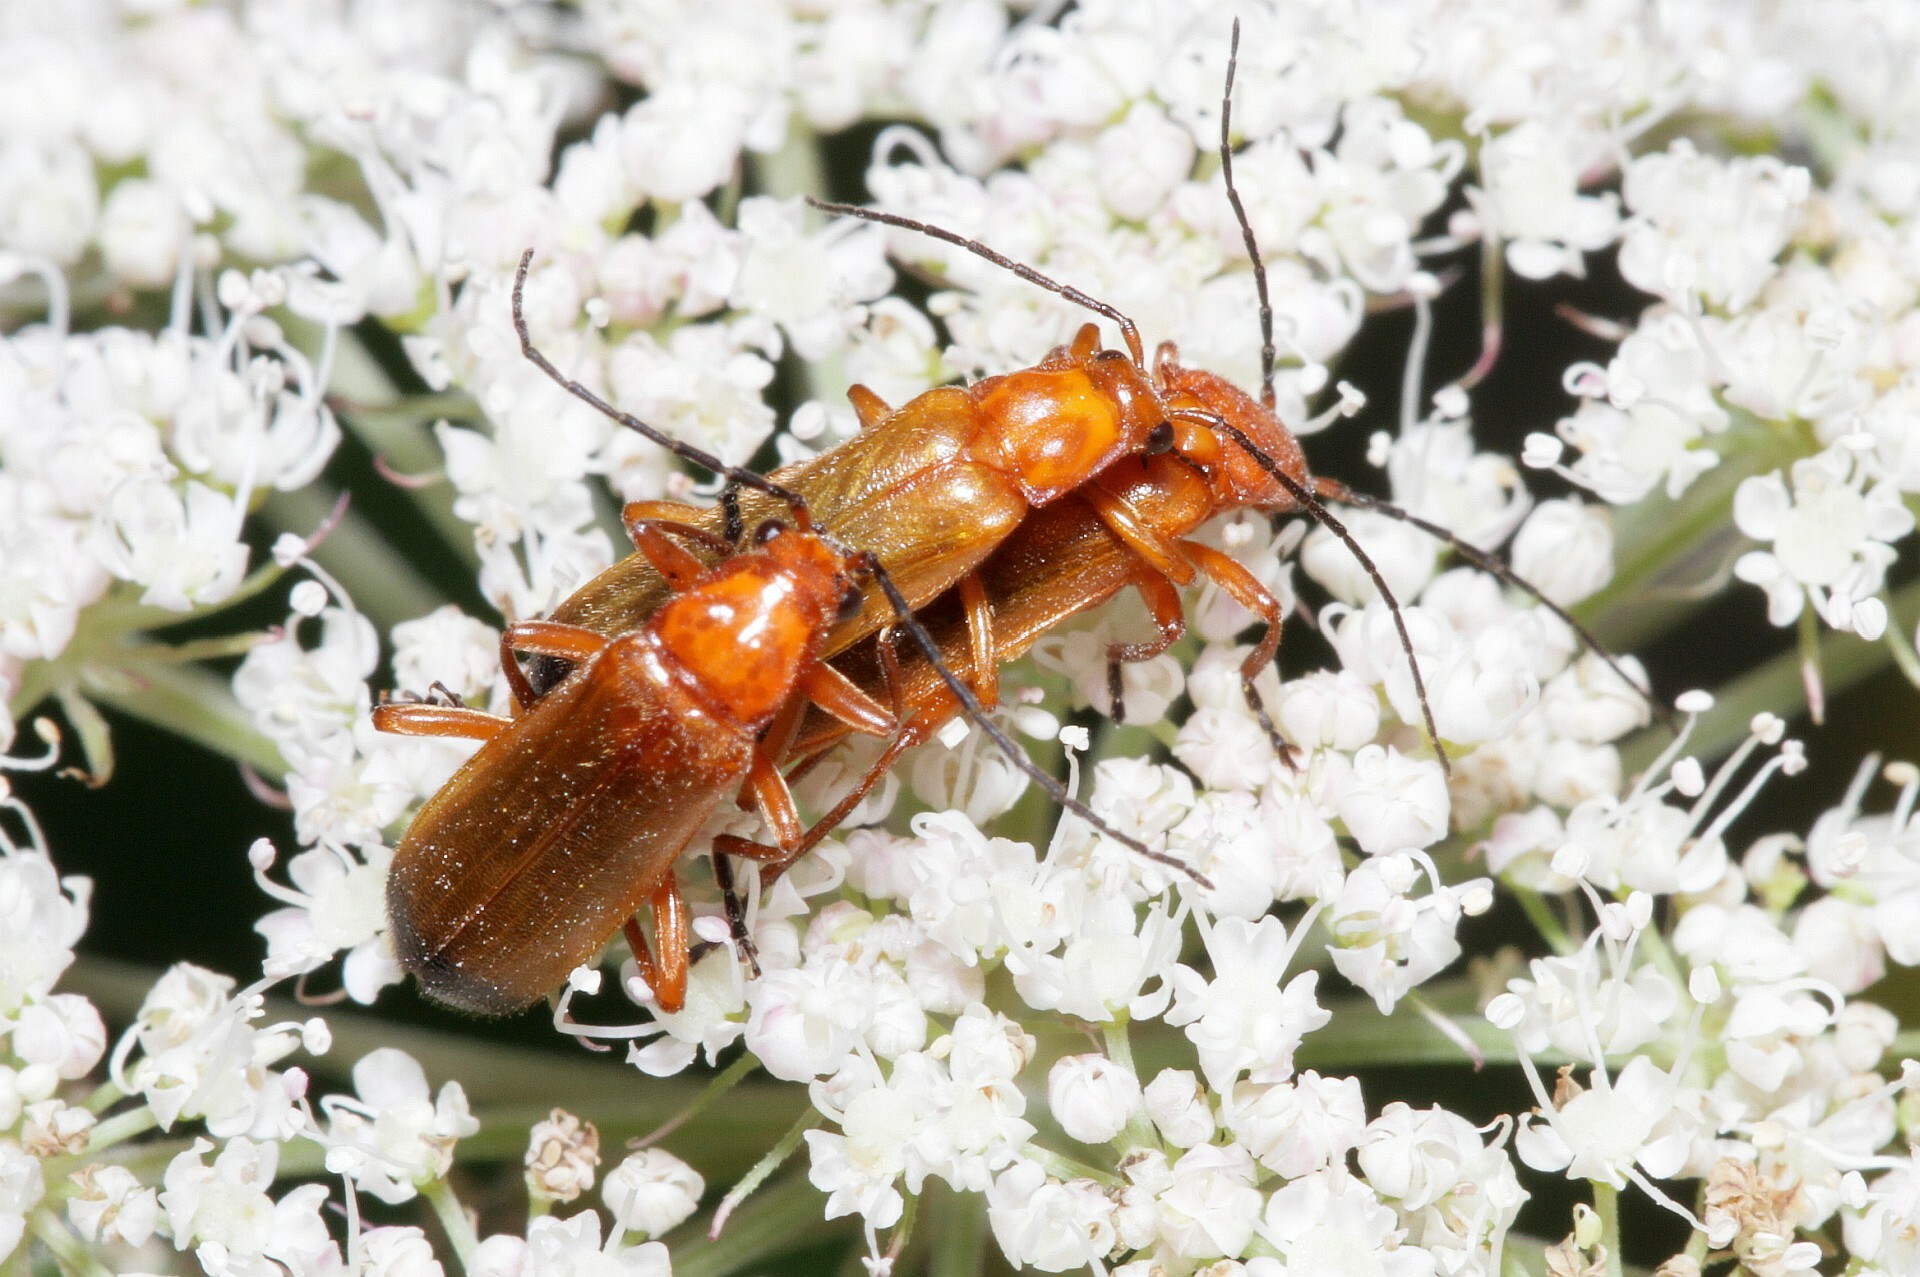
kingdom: Animalia
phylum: Arthropoda
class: Insecta
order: Coleoptera
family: Cantharidae
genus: Rhagonycha
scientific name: Rhagonycha fulva
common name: Common red soldier beetle
